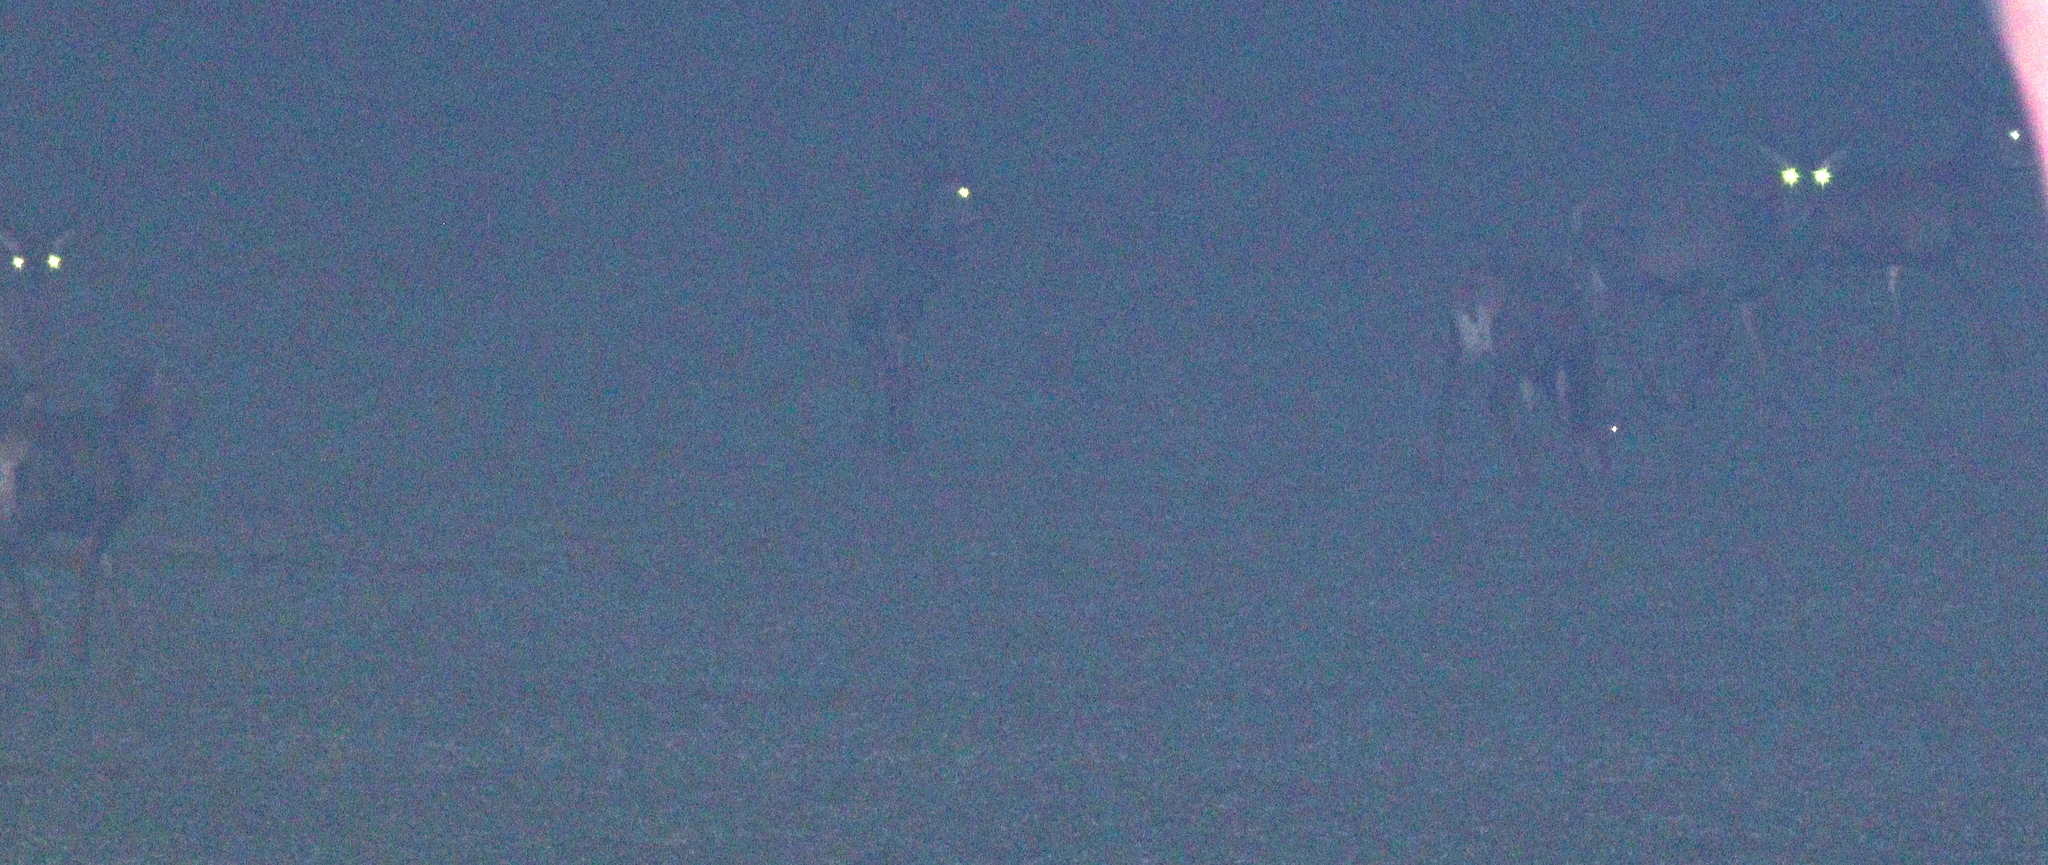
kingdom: Animalia
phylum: Chordata
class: Mammalia
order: Artiodactyla
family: Cervidae
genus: Capreolus
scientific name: Capreolus capreolus
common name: Western roe deer
